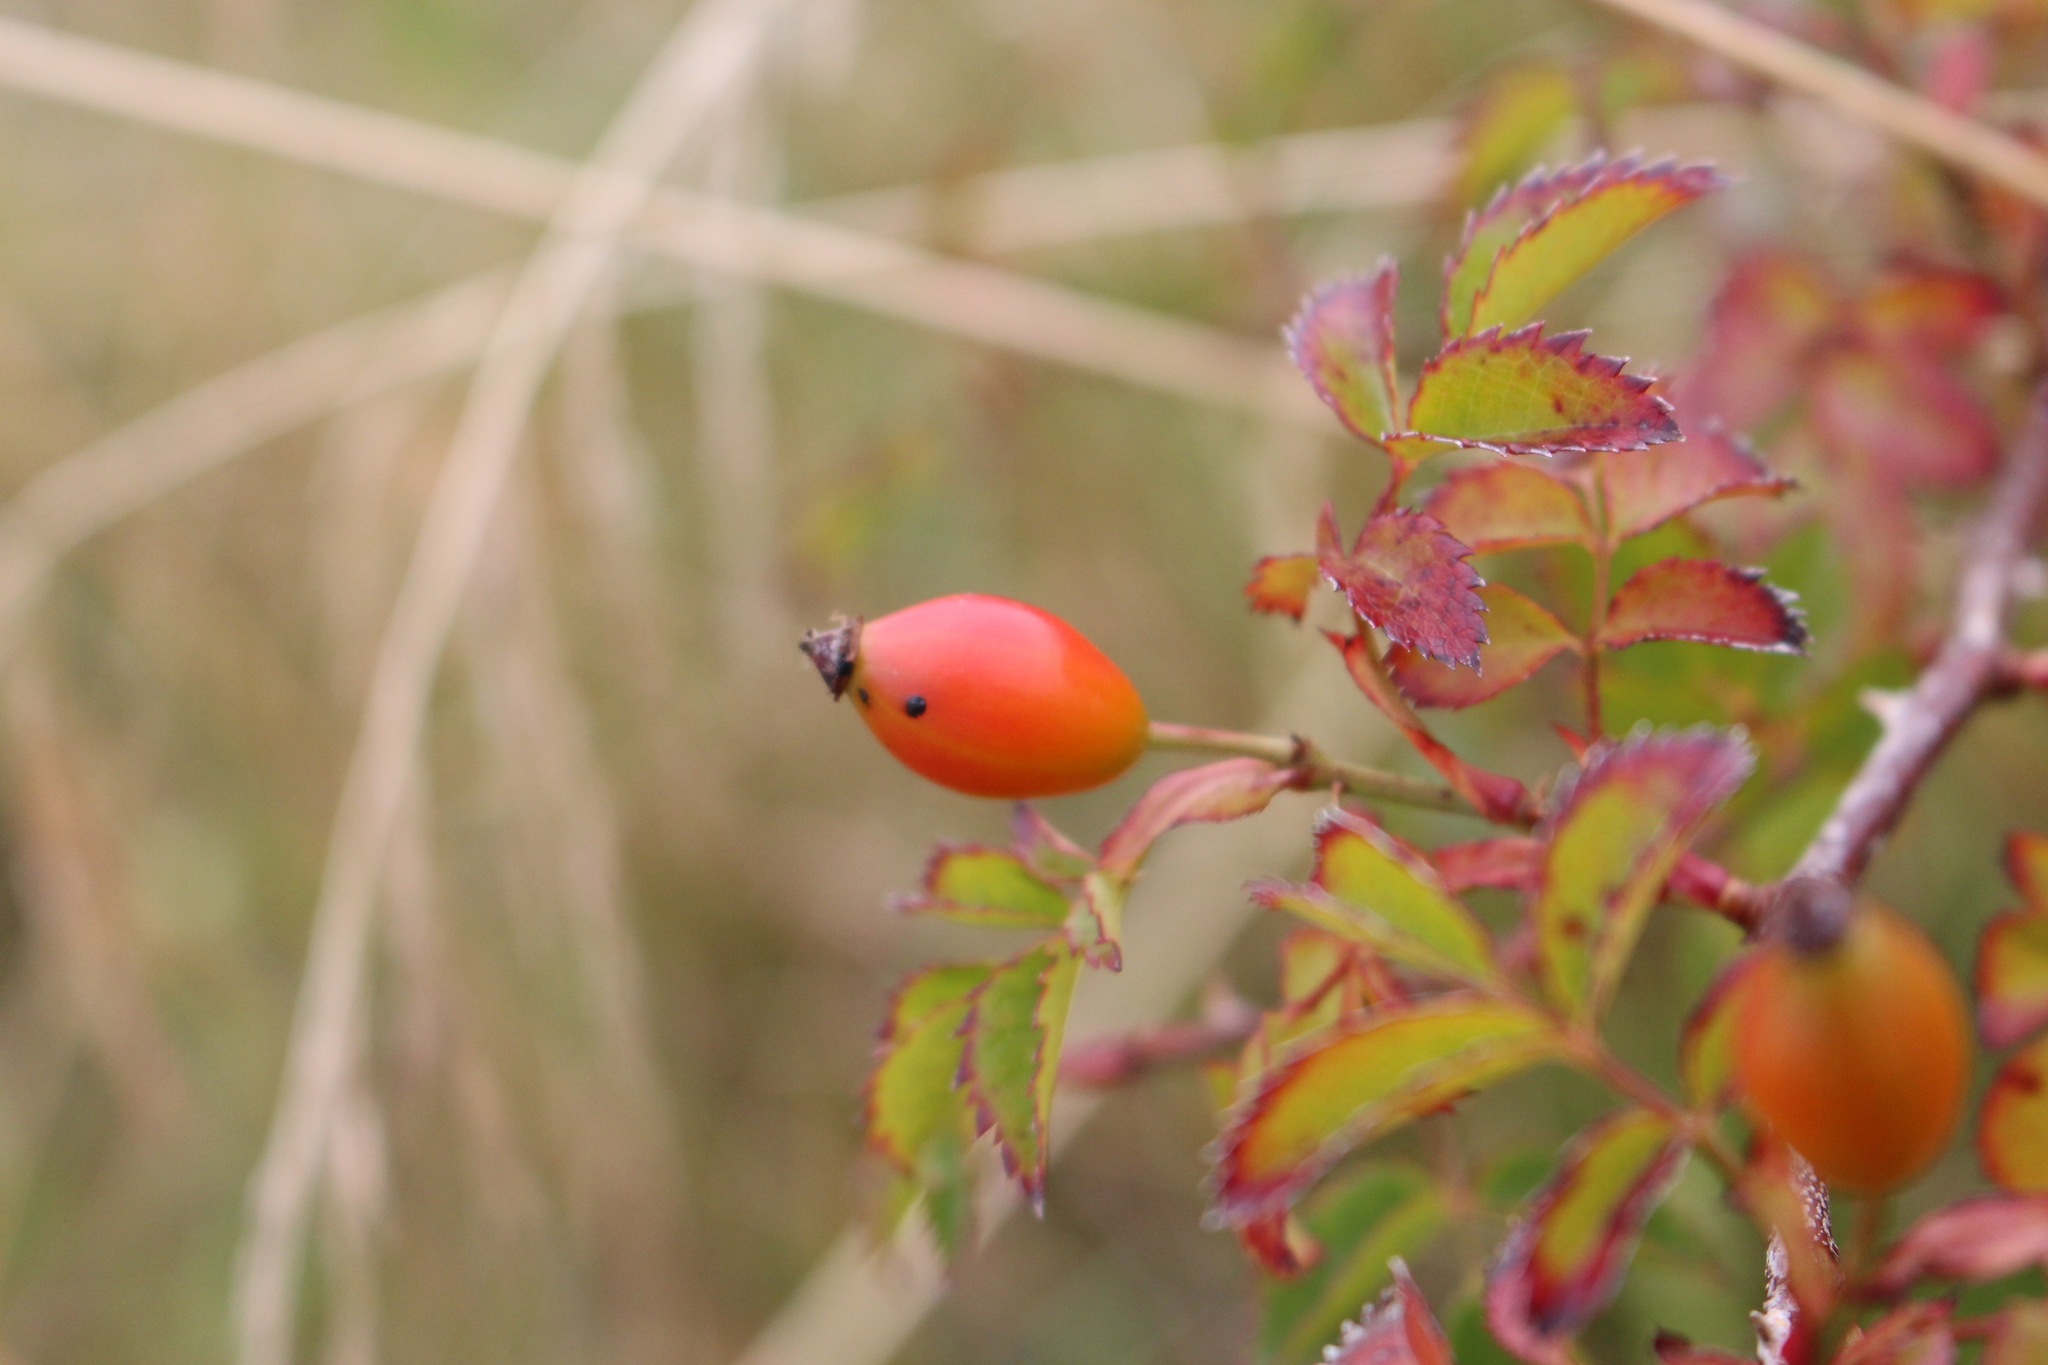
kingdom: Plantae
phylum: Tracheophyta
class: Magnoliopsida
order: Rosales
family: Rosaceae
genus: Rosa
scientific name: Rosa canina
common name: Dog rose
